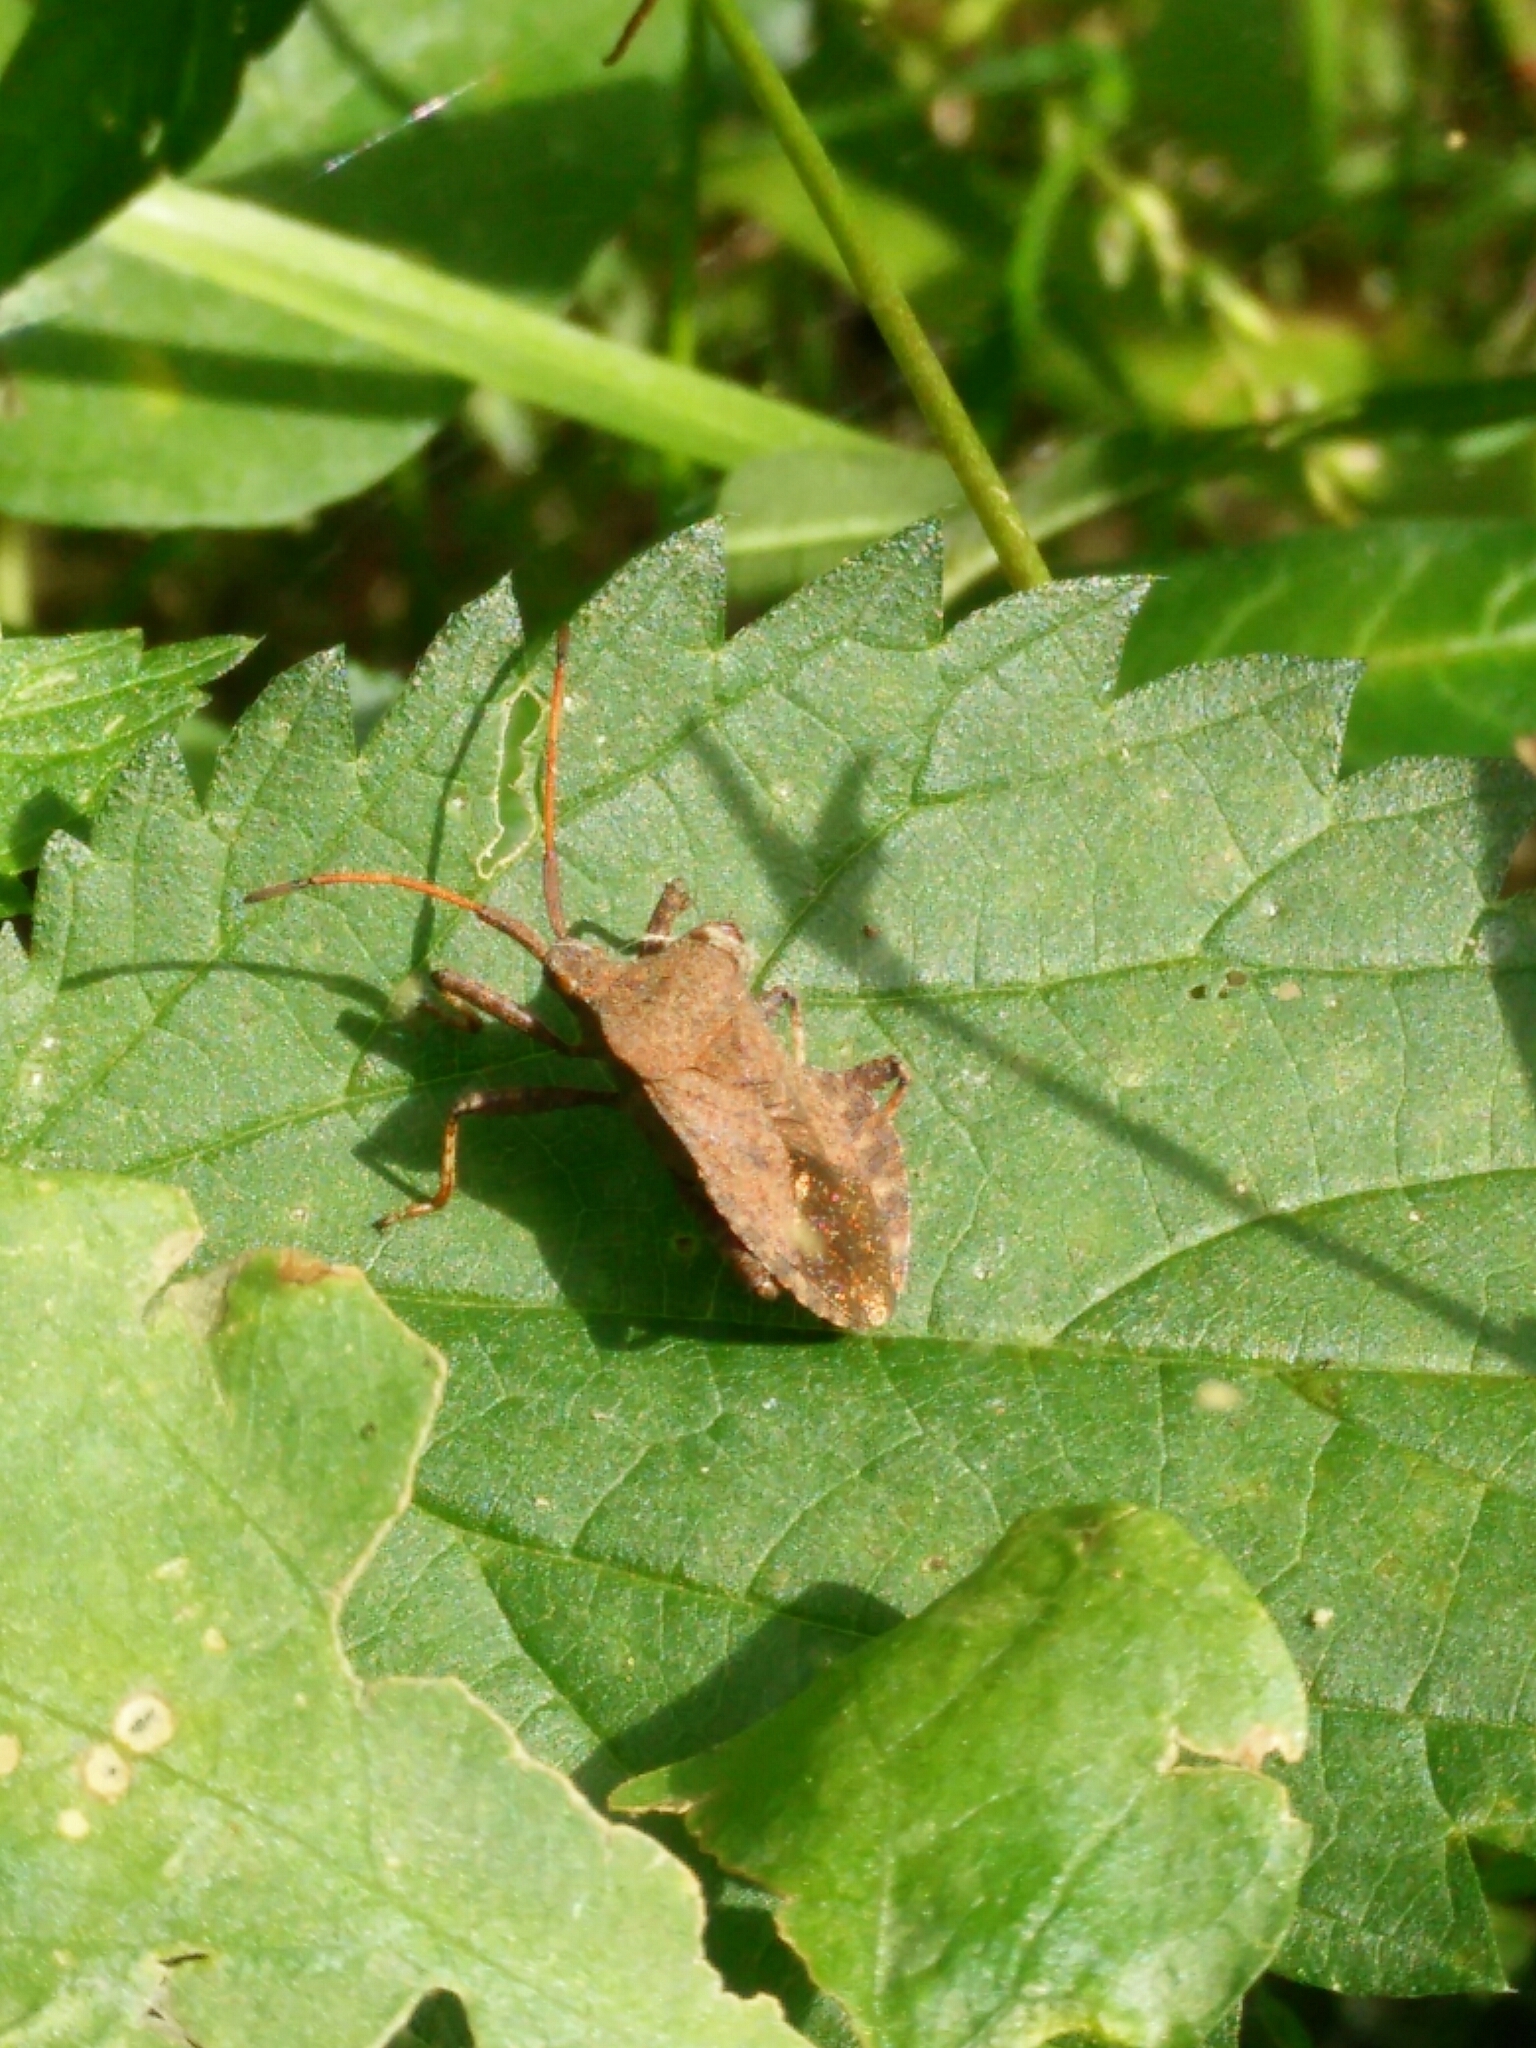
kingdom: Animalia
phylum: Arthropoda
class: Insecta
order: Hemiptera
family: Coreidae
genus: Coreus
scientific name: Coreus marginatus
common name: Dock bug
